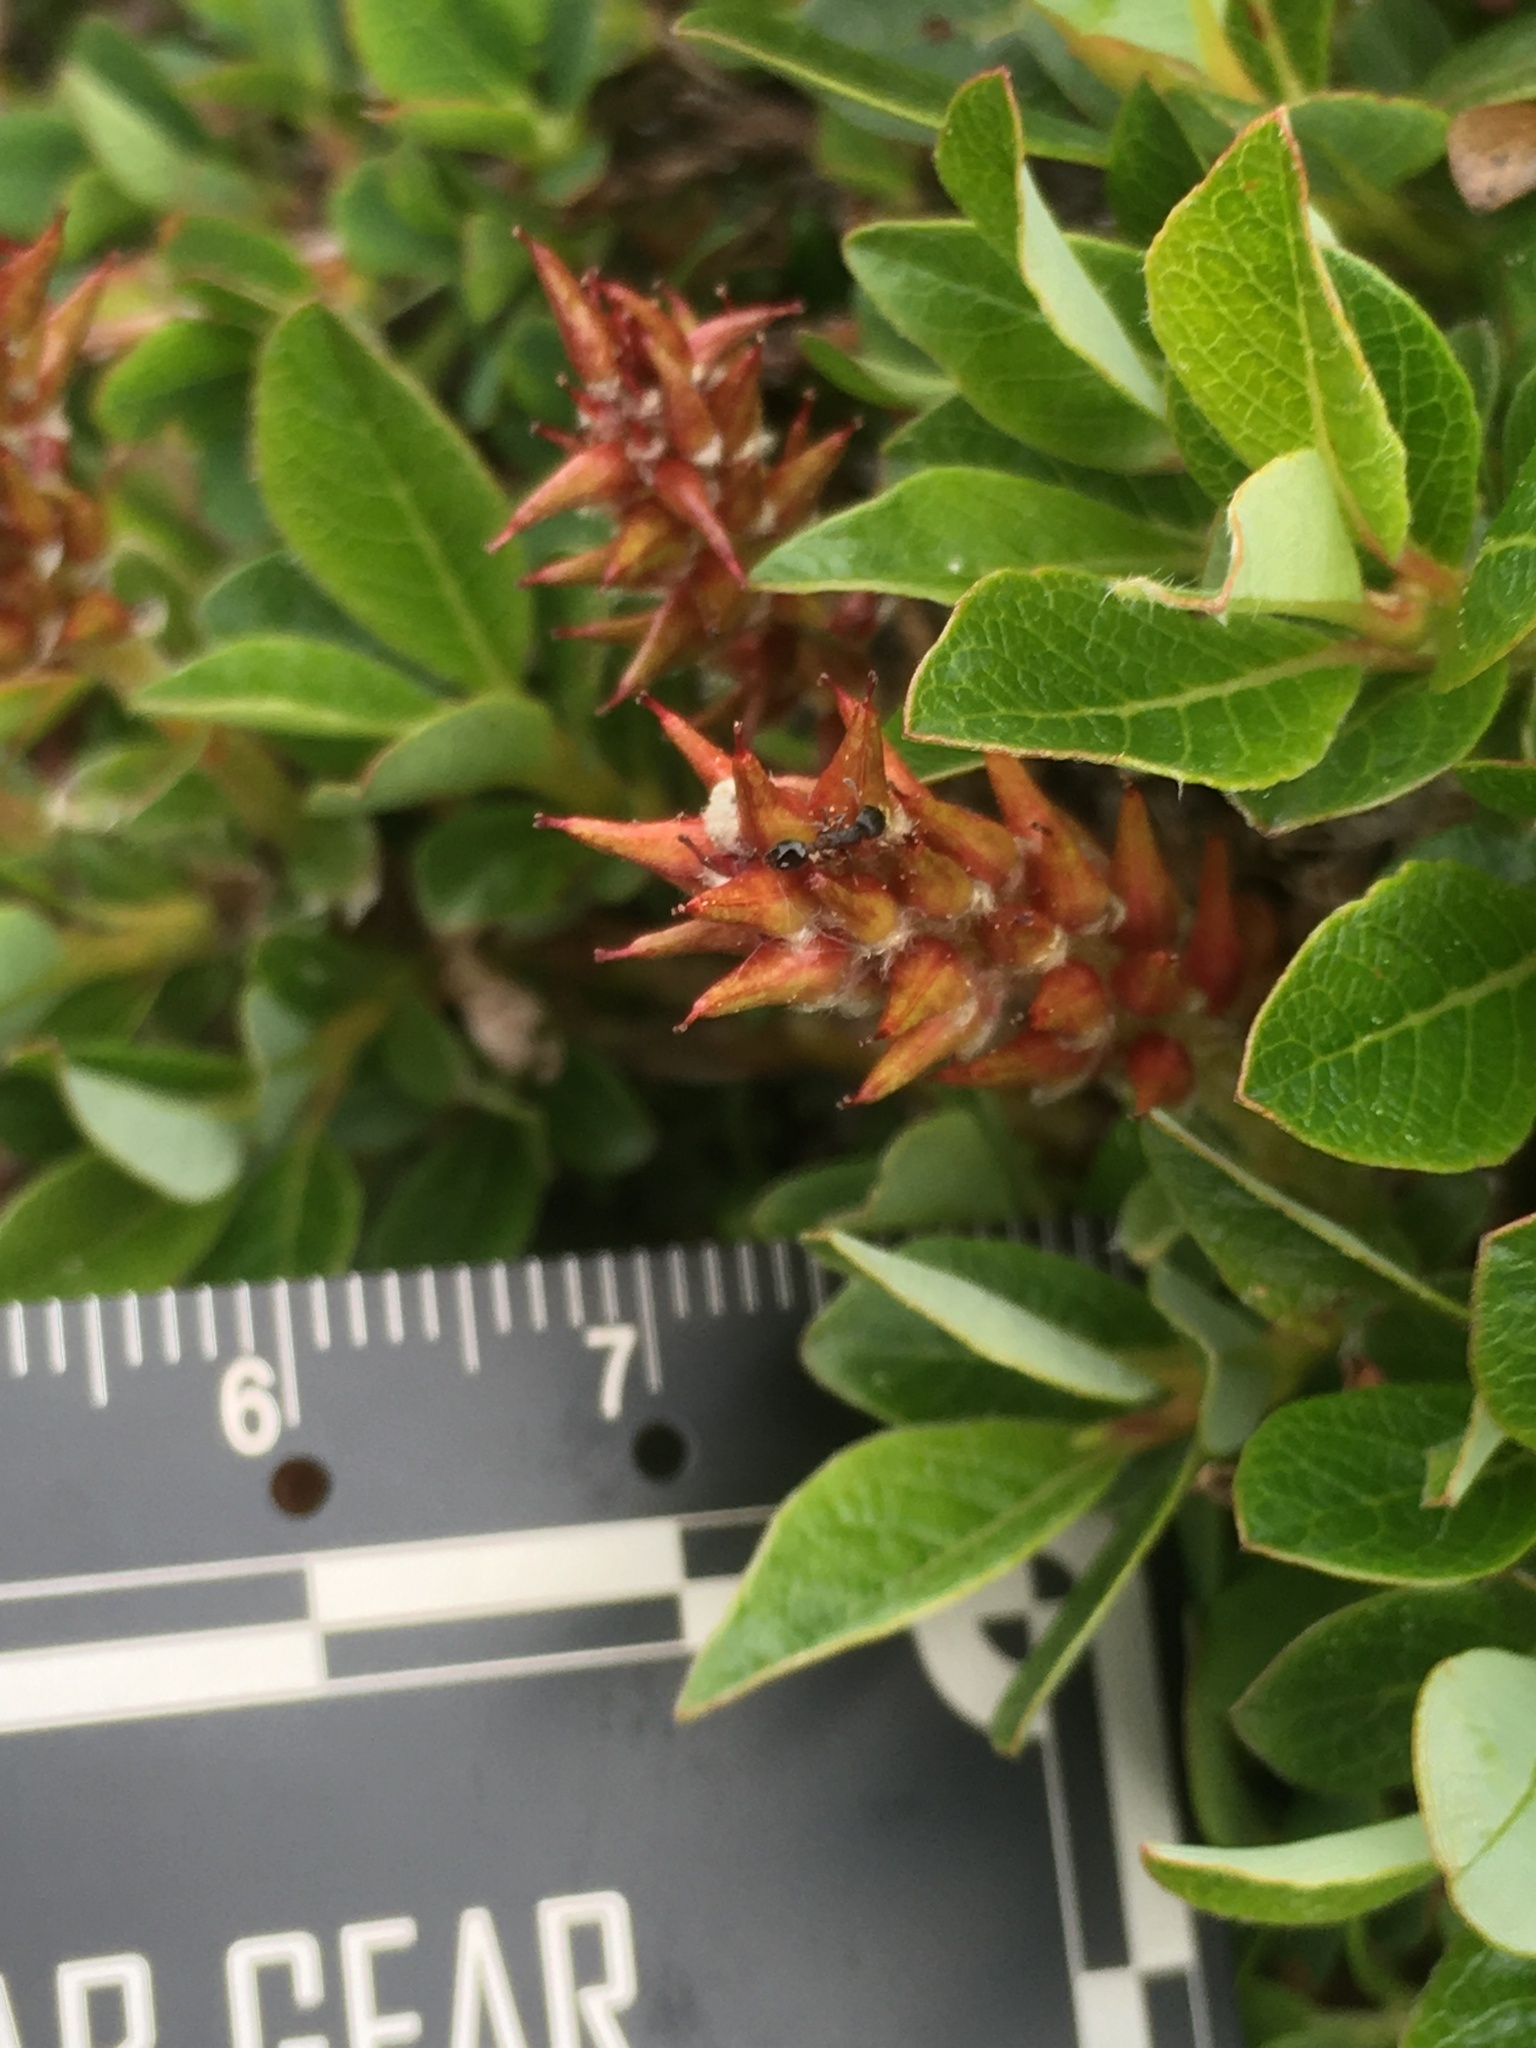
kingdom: Plantae
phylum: Tracheophyta
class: Magnoliopsida
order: Malpighiales
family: Salicaceae
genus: Salix
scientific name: Salix uva-ursi
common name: Bearberry willow
